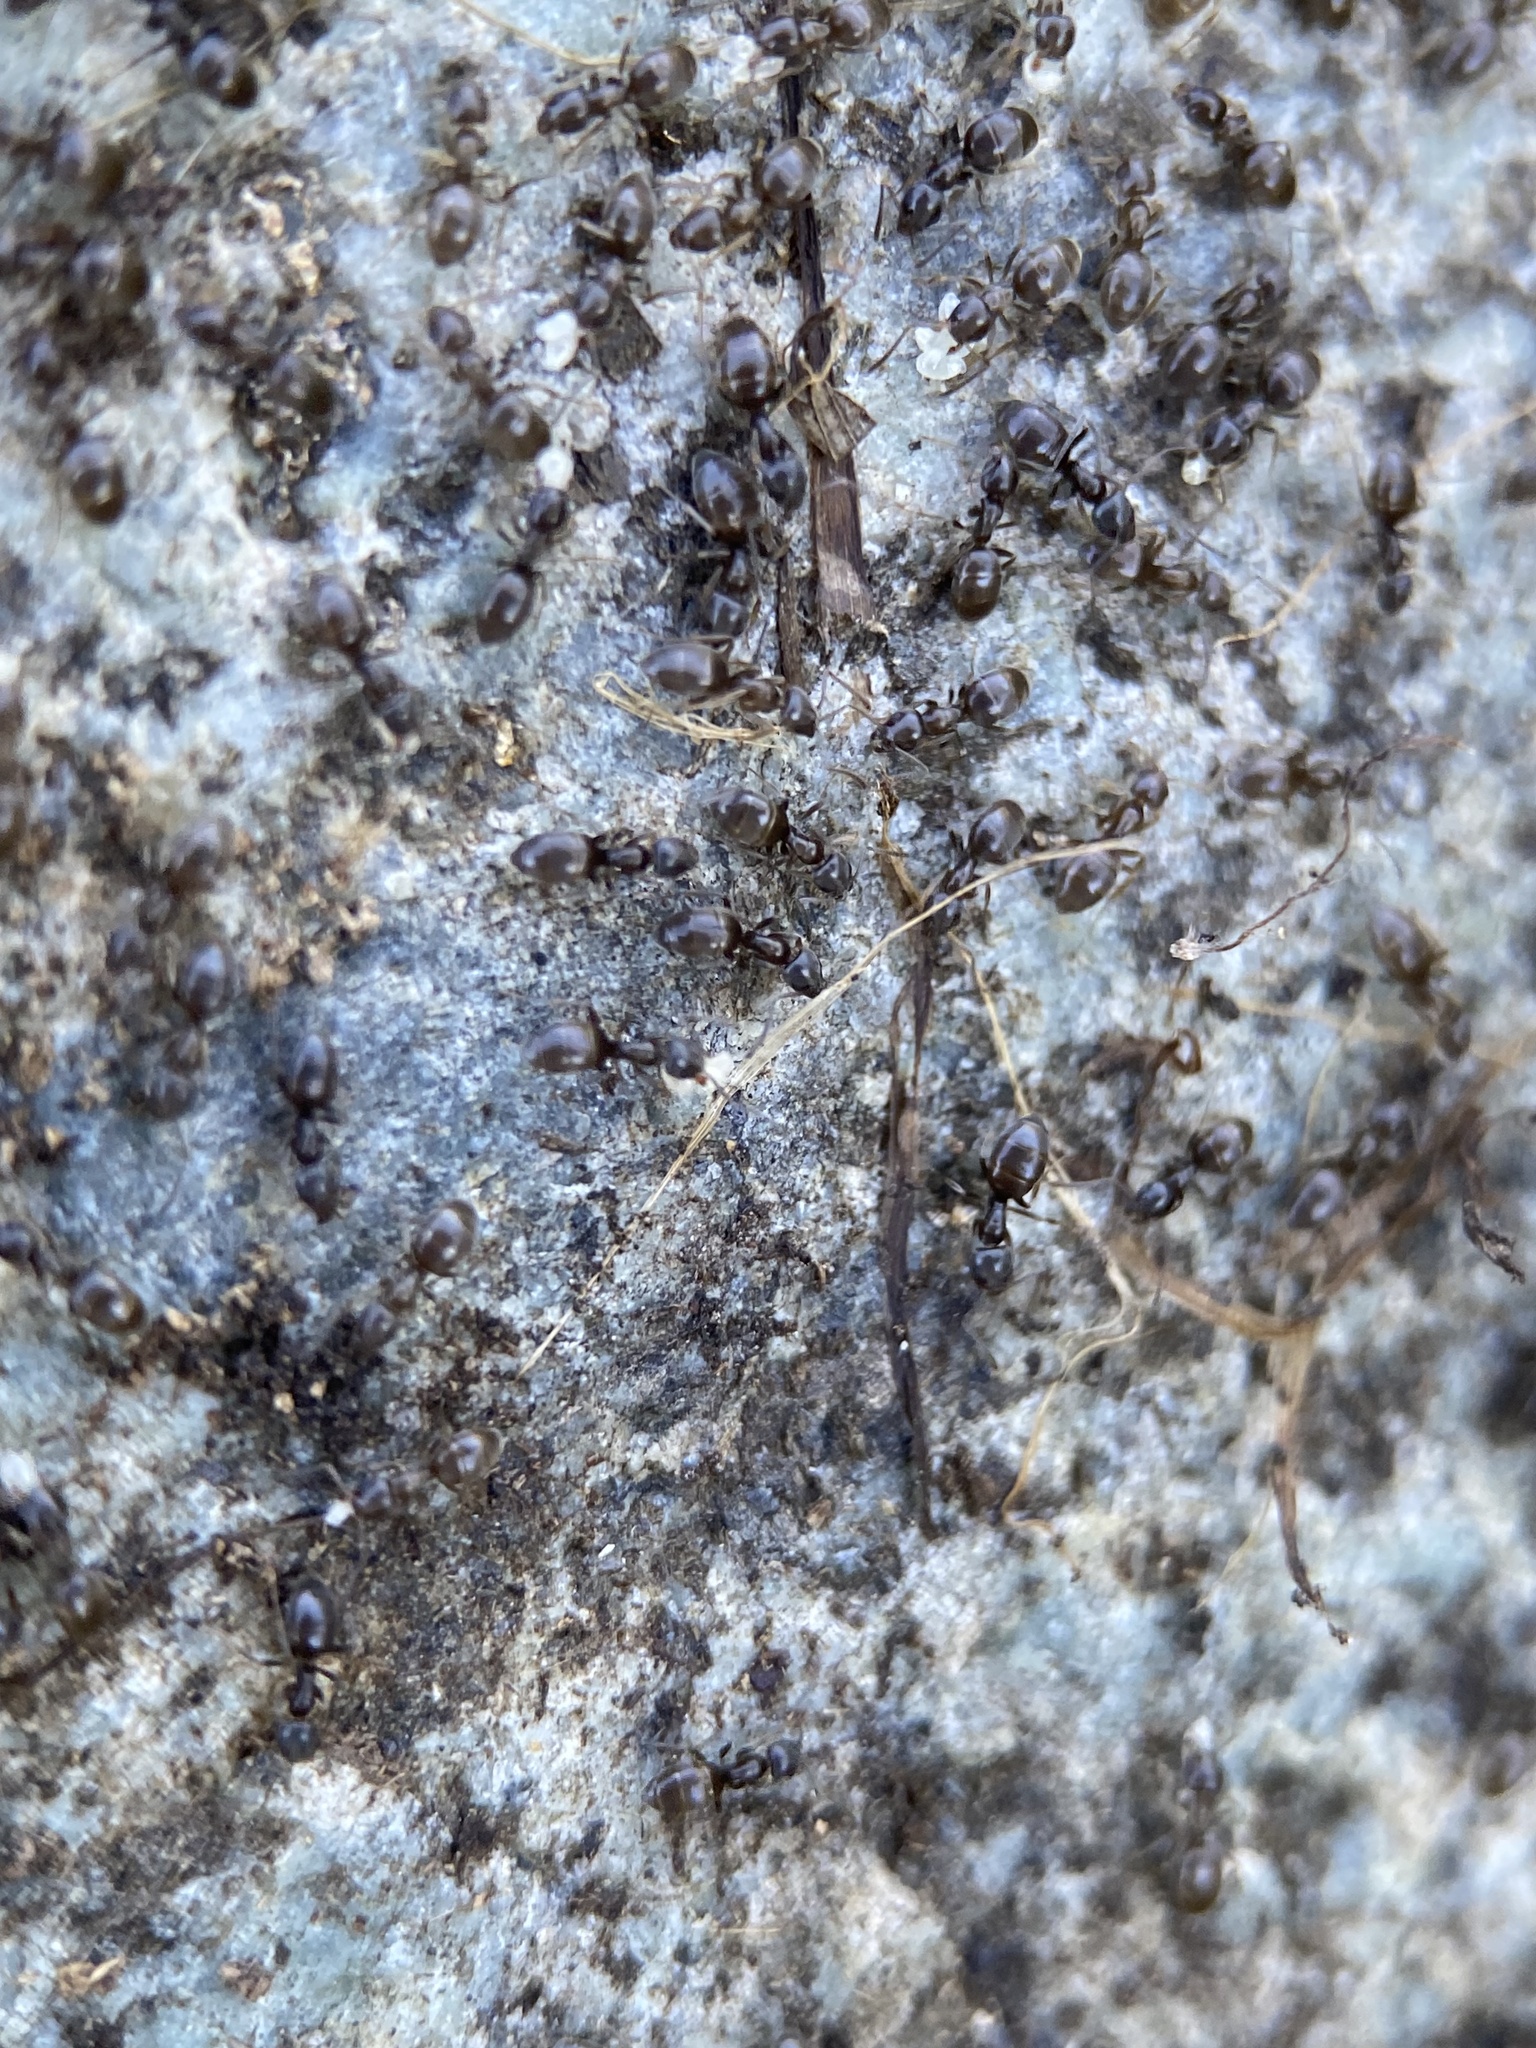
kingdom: Animalia
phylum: Arthropoda
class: Insecta
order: Hymenoptera
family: Formicidae
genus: Tapinoma
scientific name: Tapinoma sessile
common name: Odorous house ant
